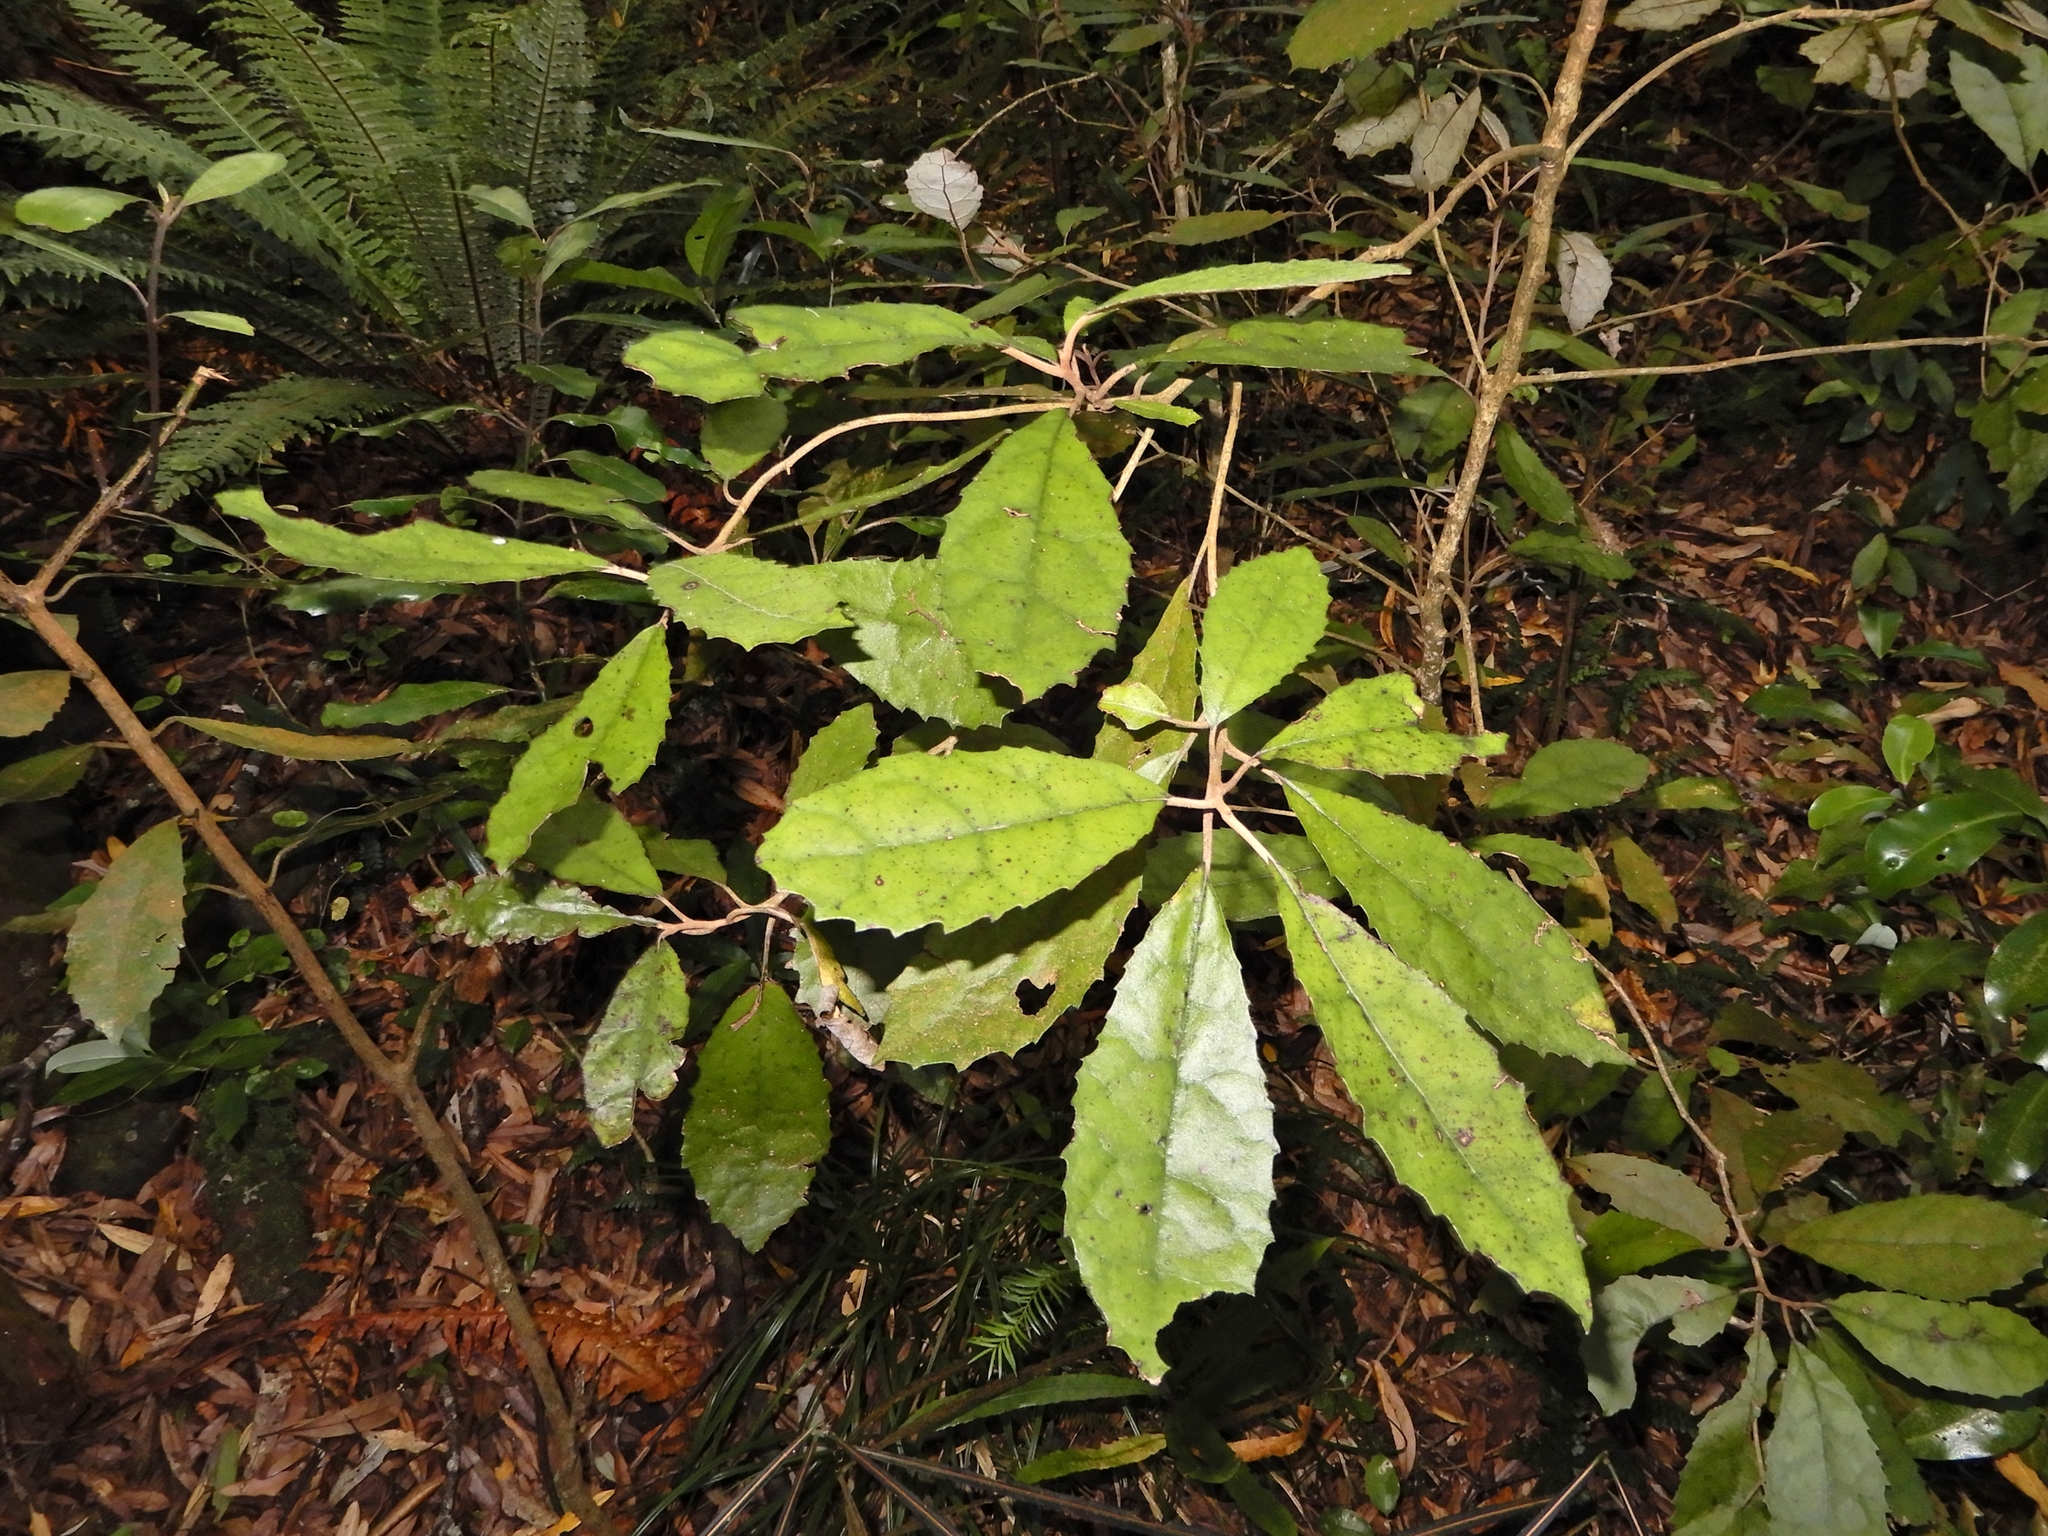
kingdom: Plantae
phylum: Tracheophyta
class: Magnoliopsida
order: Asterales
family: Asteraceae
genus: Olearia
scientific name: Olearia rani
